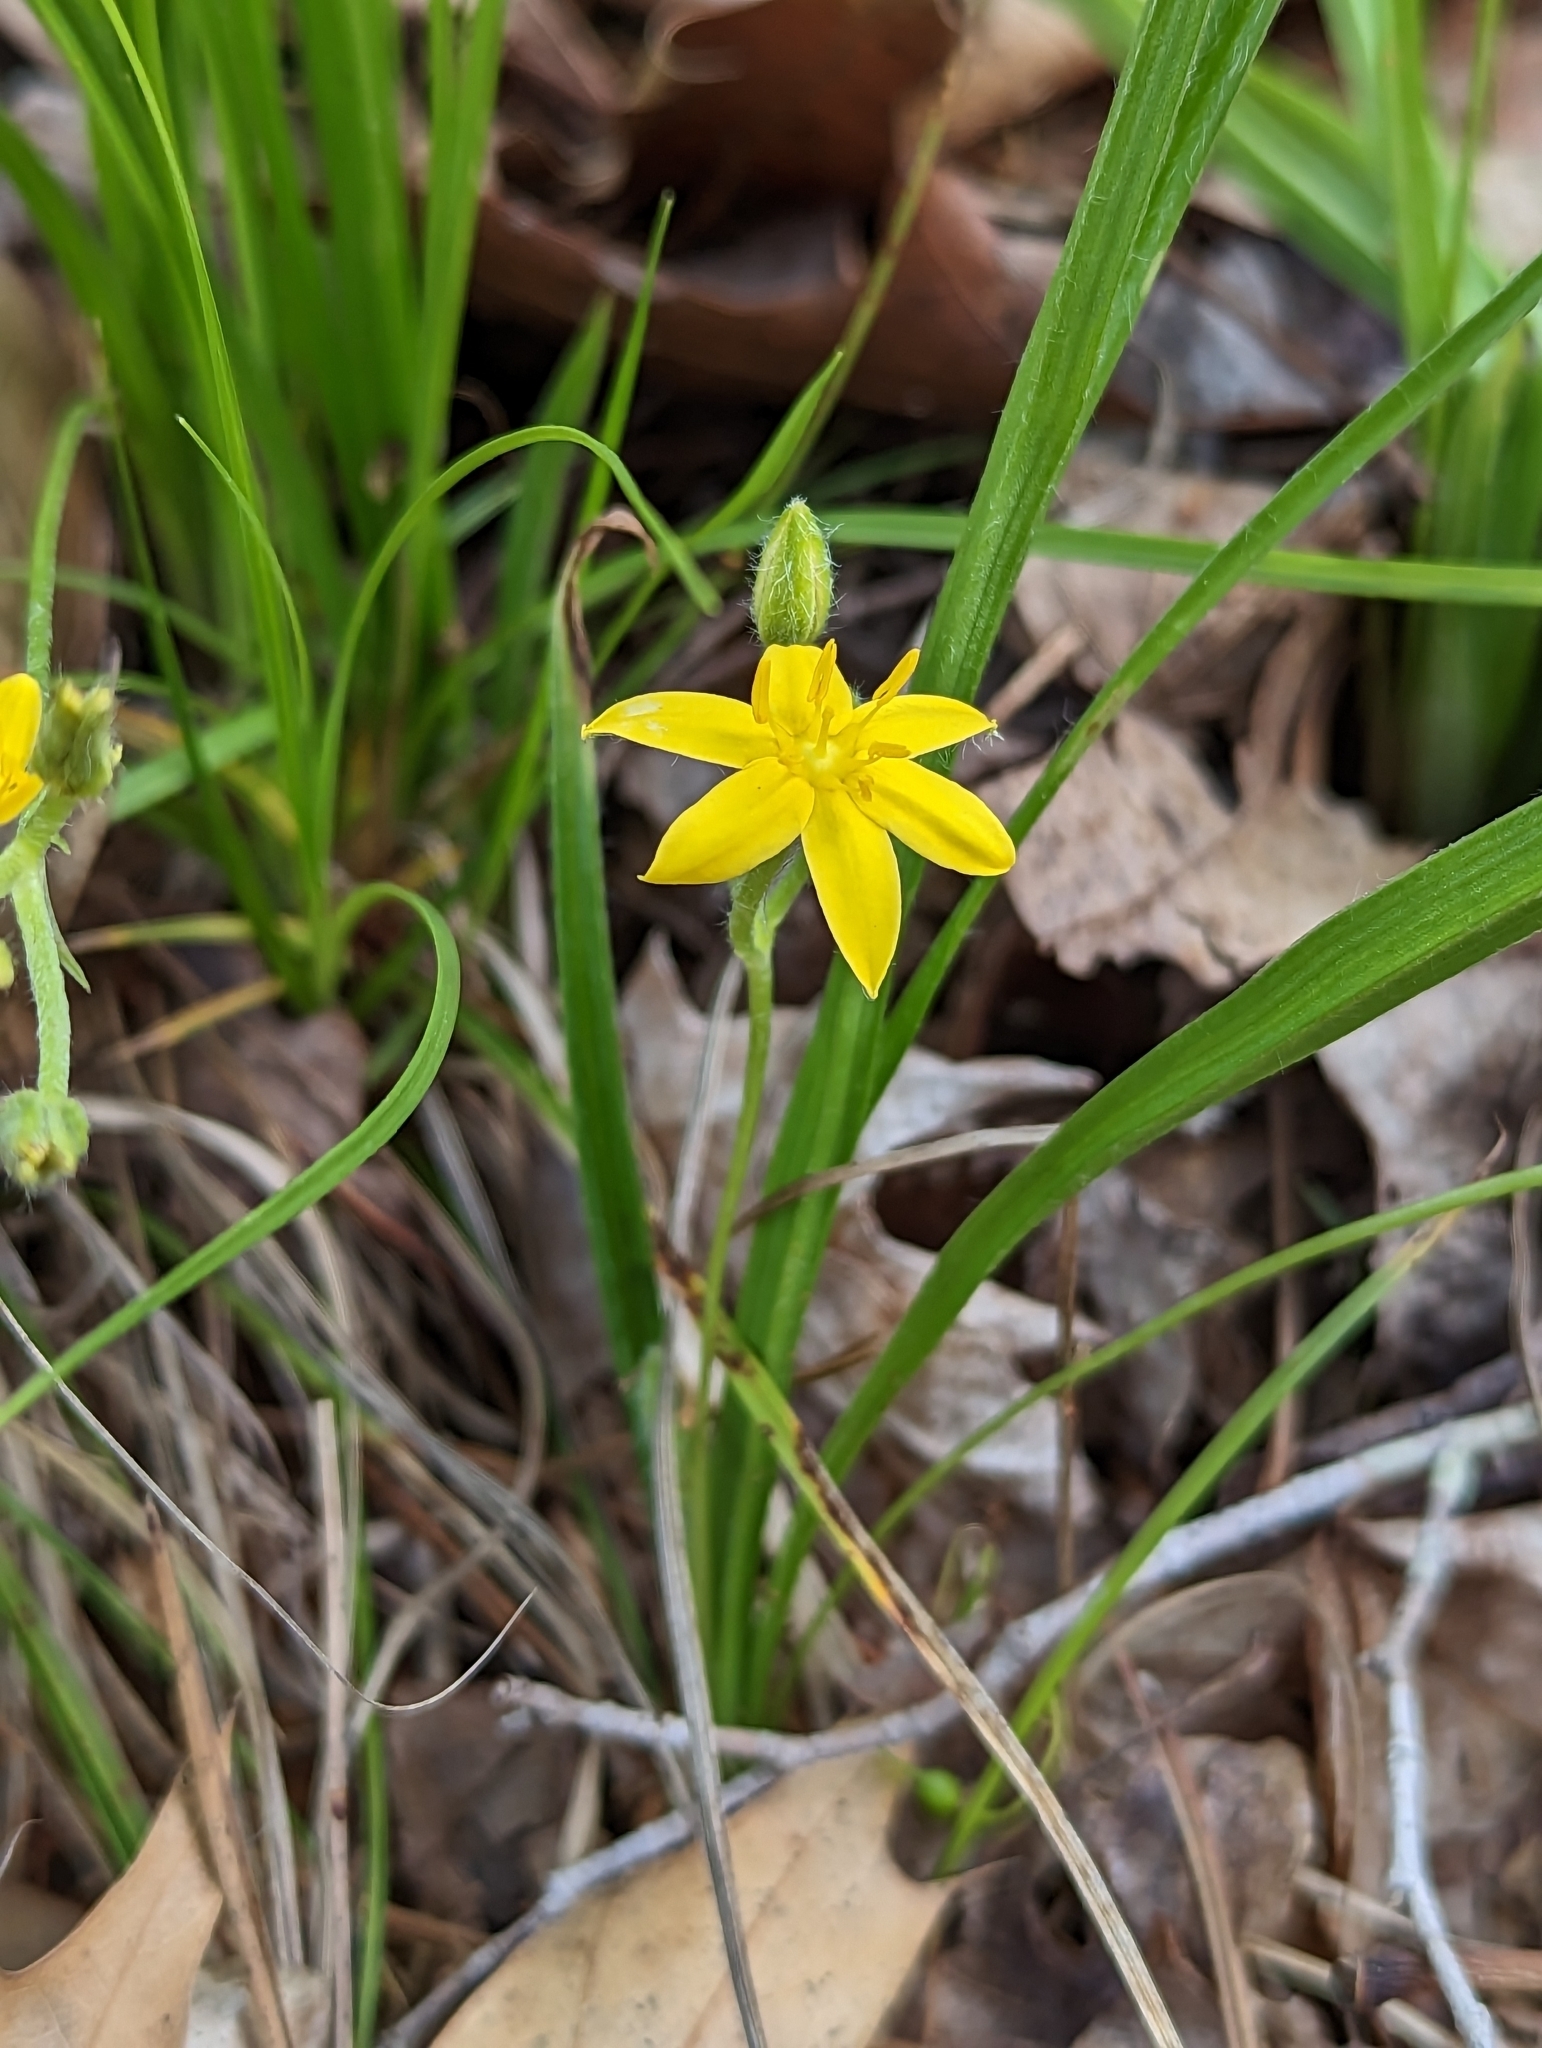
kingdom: Plantae
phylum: Tracheophyta
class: Liliopsida
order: Asparagales
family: Hypoxidaceae
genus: Hypoxis
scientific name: Hypoxis hirsuta
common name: Common goldstar
